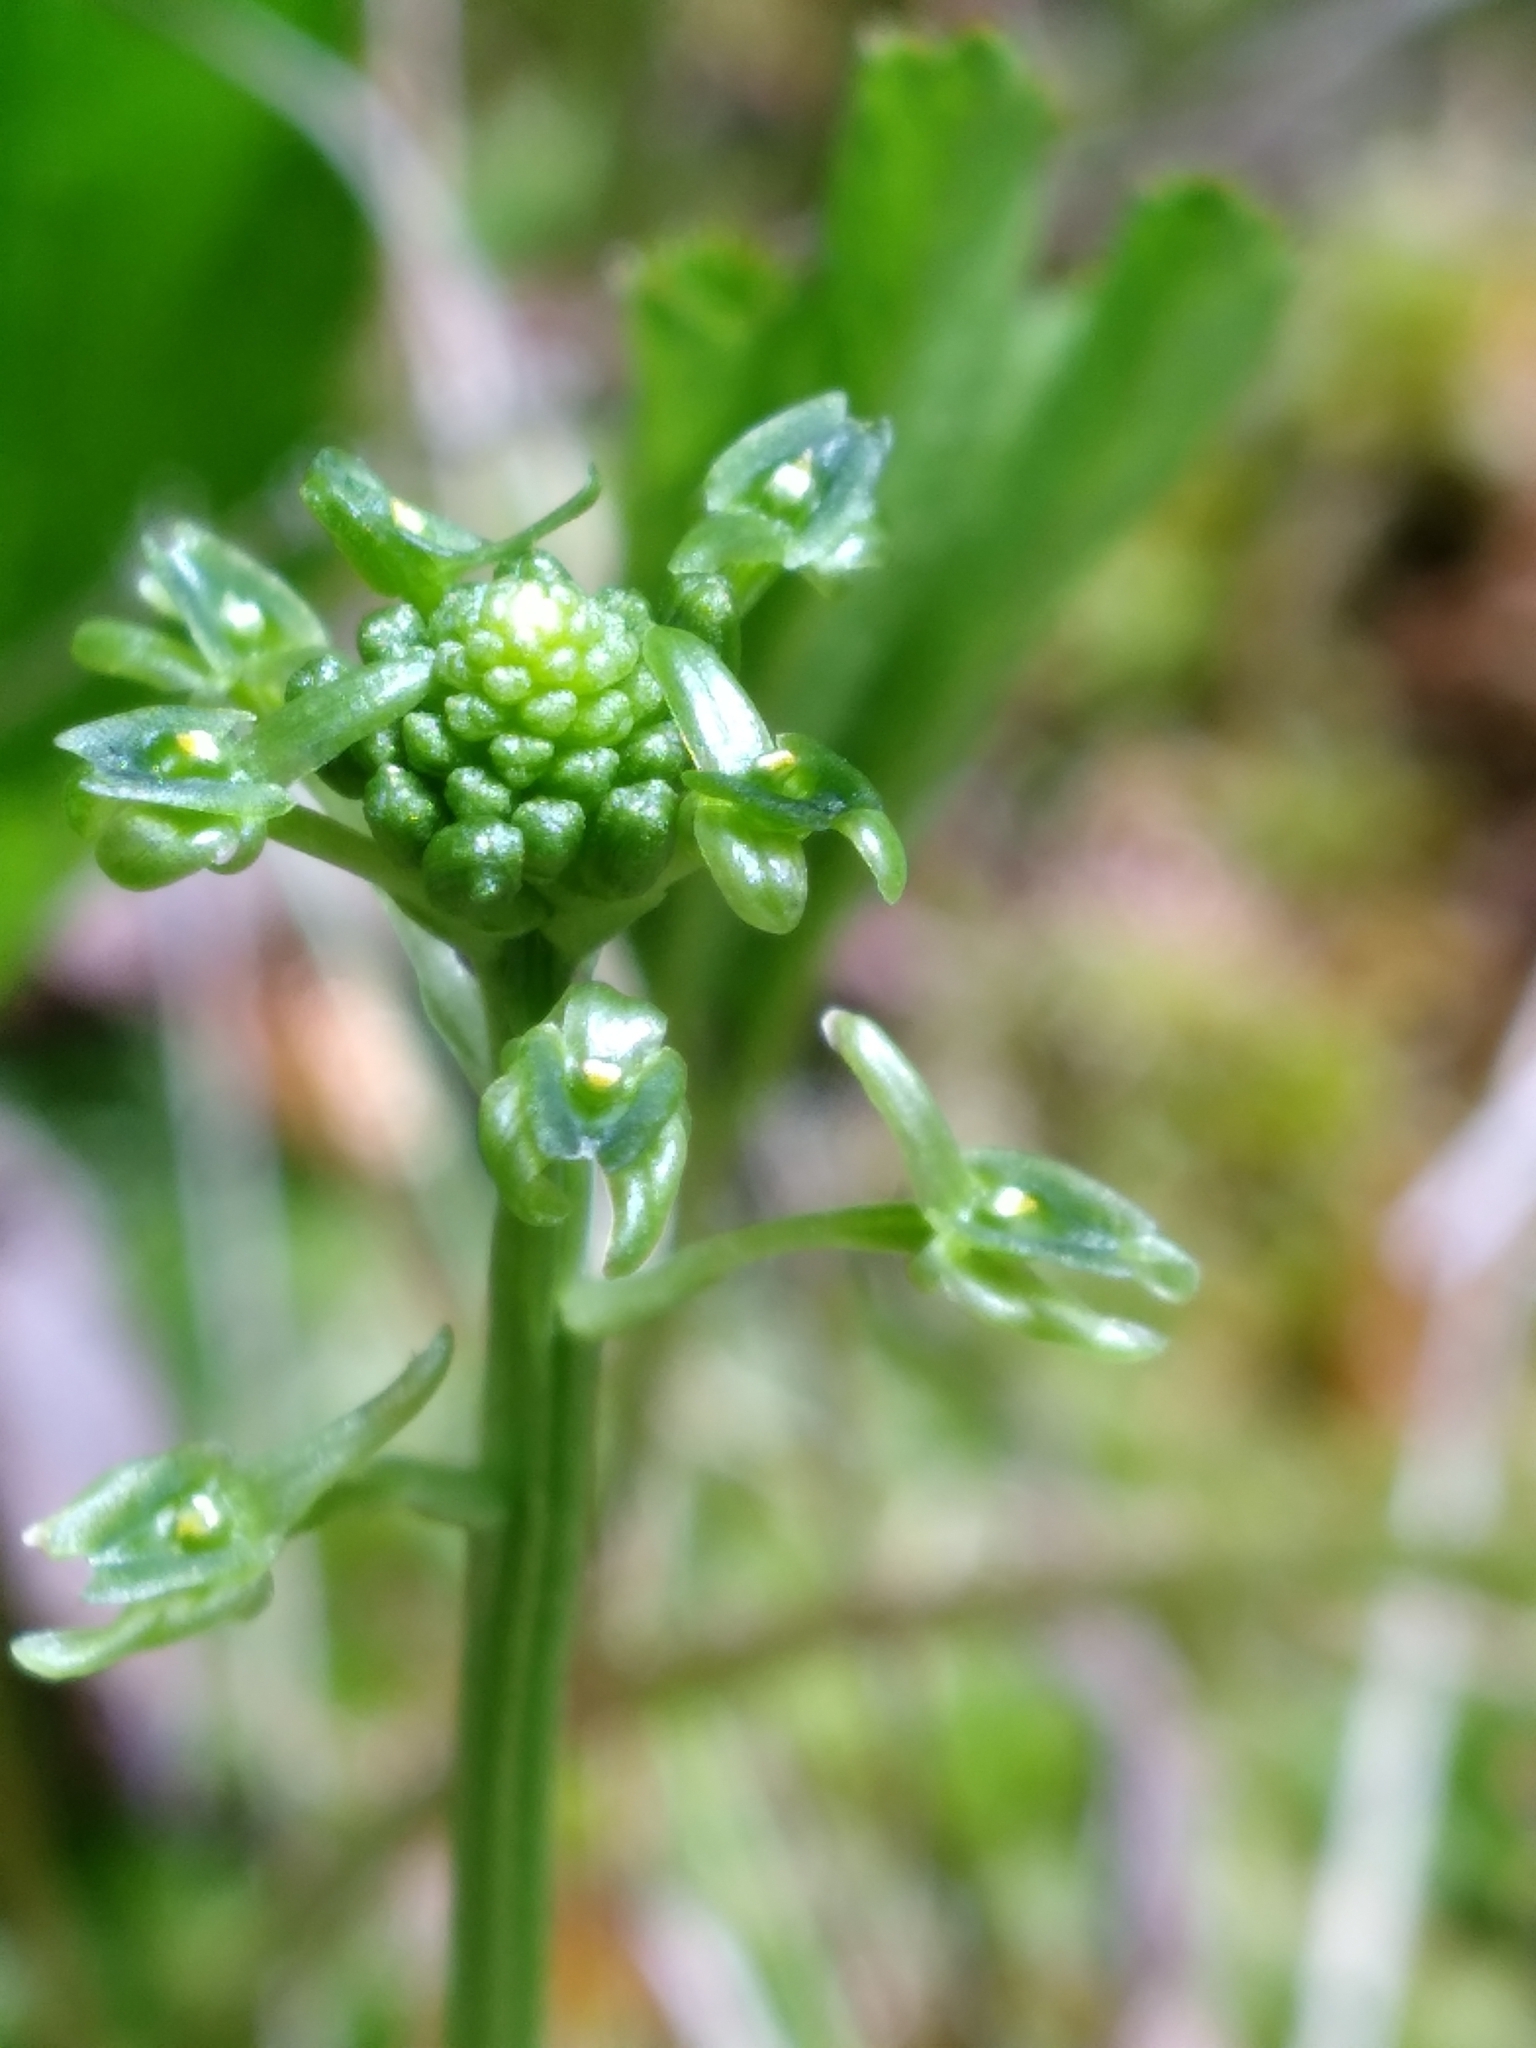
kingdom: Plantae
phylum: Tracheophyta
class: Liliopsida
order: Asparagales
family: Orchidaceae
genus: Malaxis
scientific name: Malaxis unifolia
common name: Green adder's-mouth
